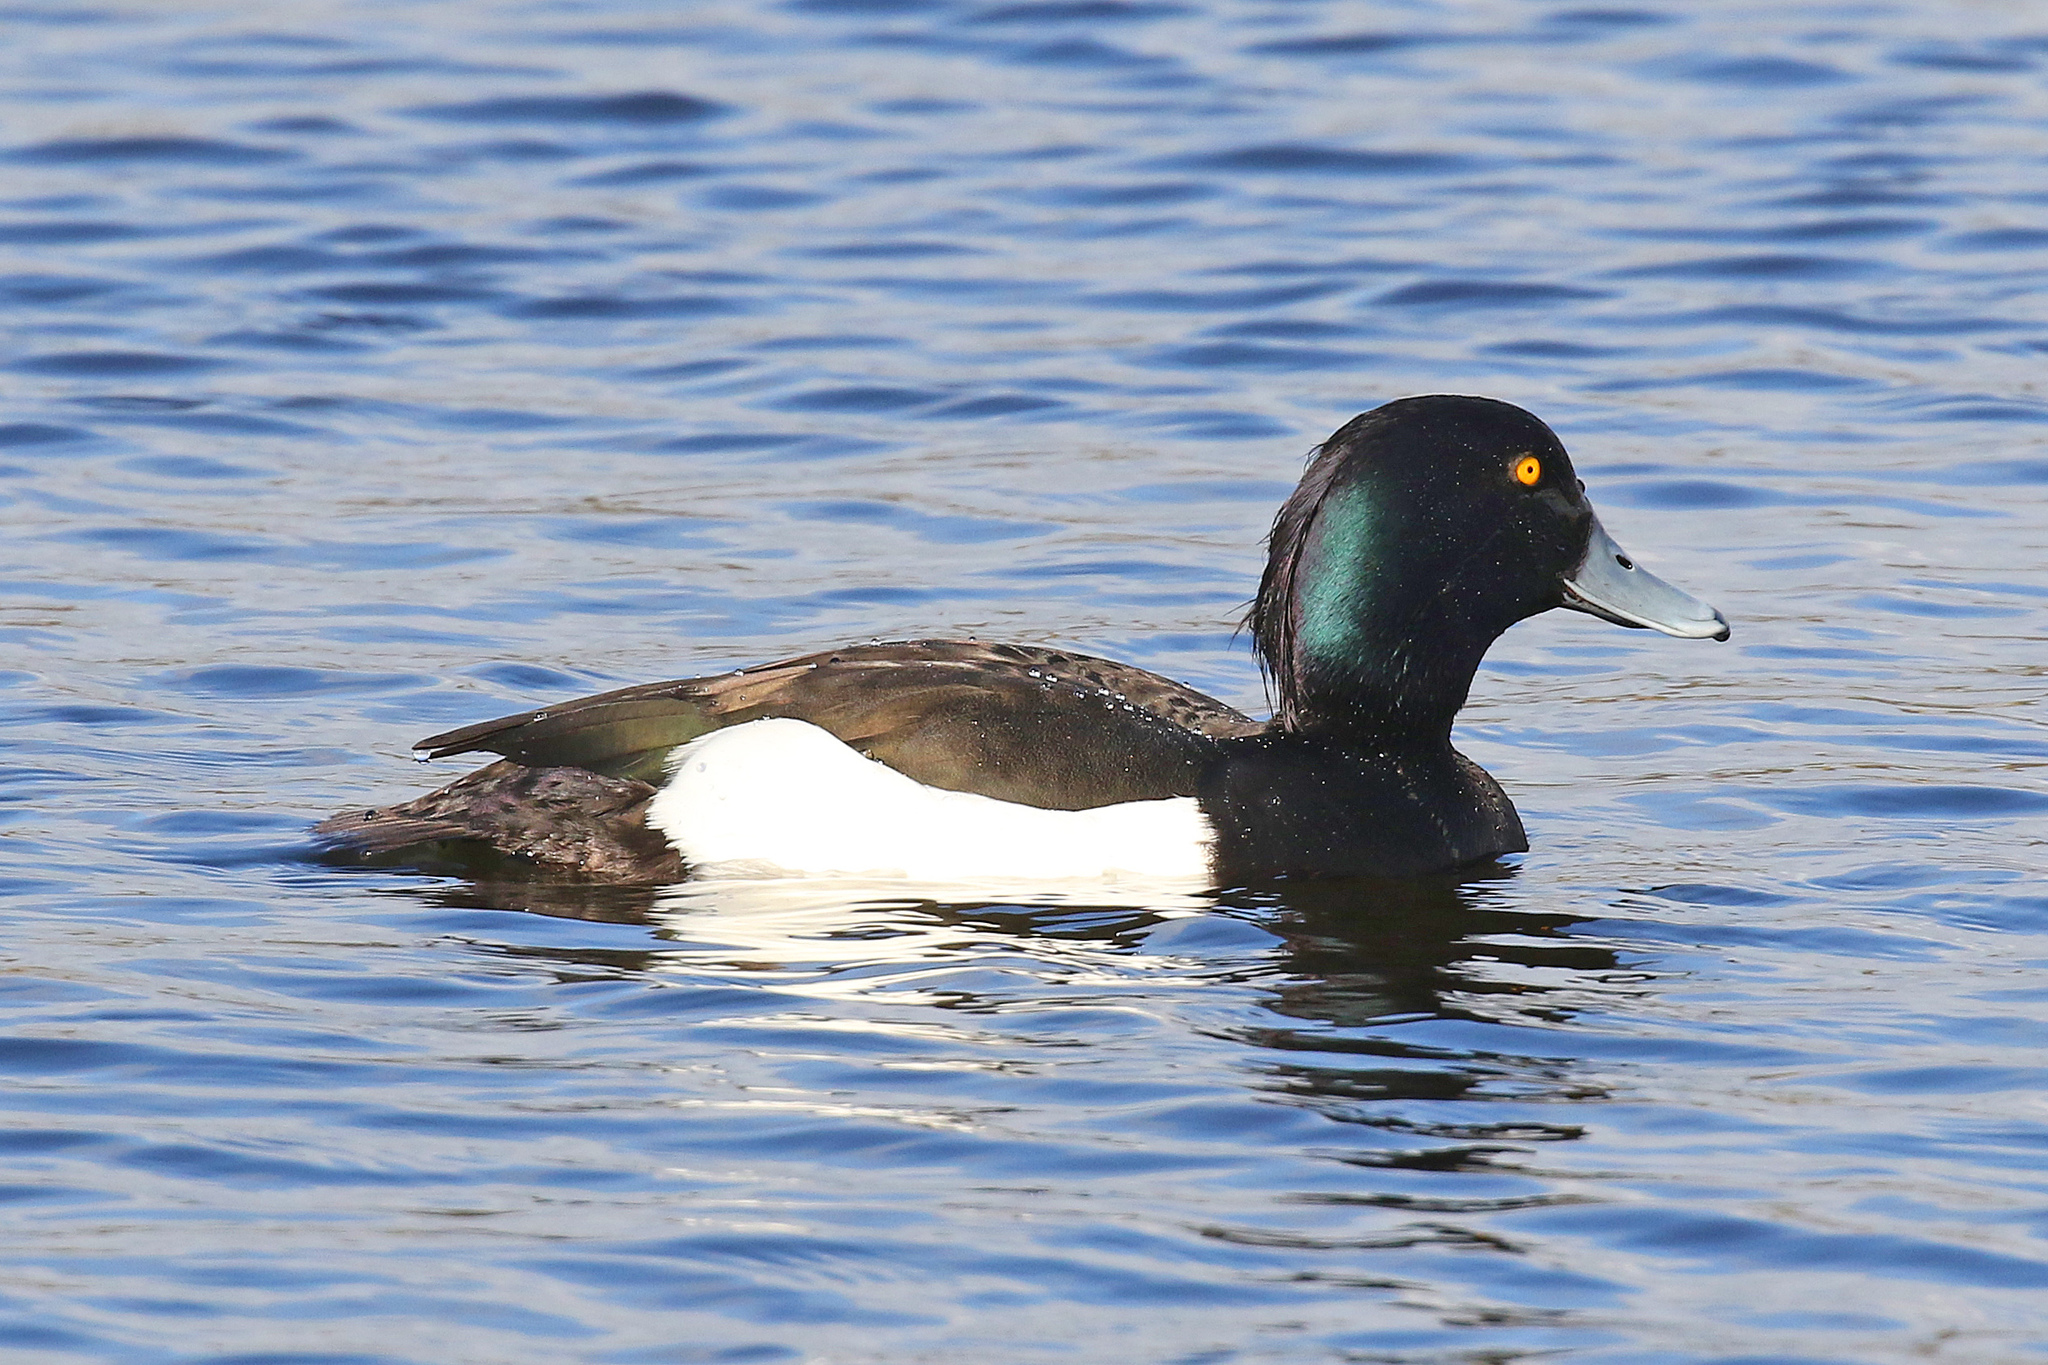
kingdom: Animalia
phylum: Chordata
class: Aves
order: Anseriformes
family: Anatidae
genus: Aythya
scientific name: Aythya fuligula
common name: Tufted duck
